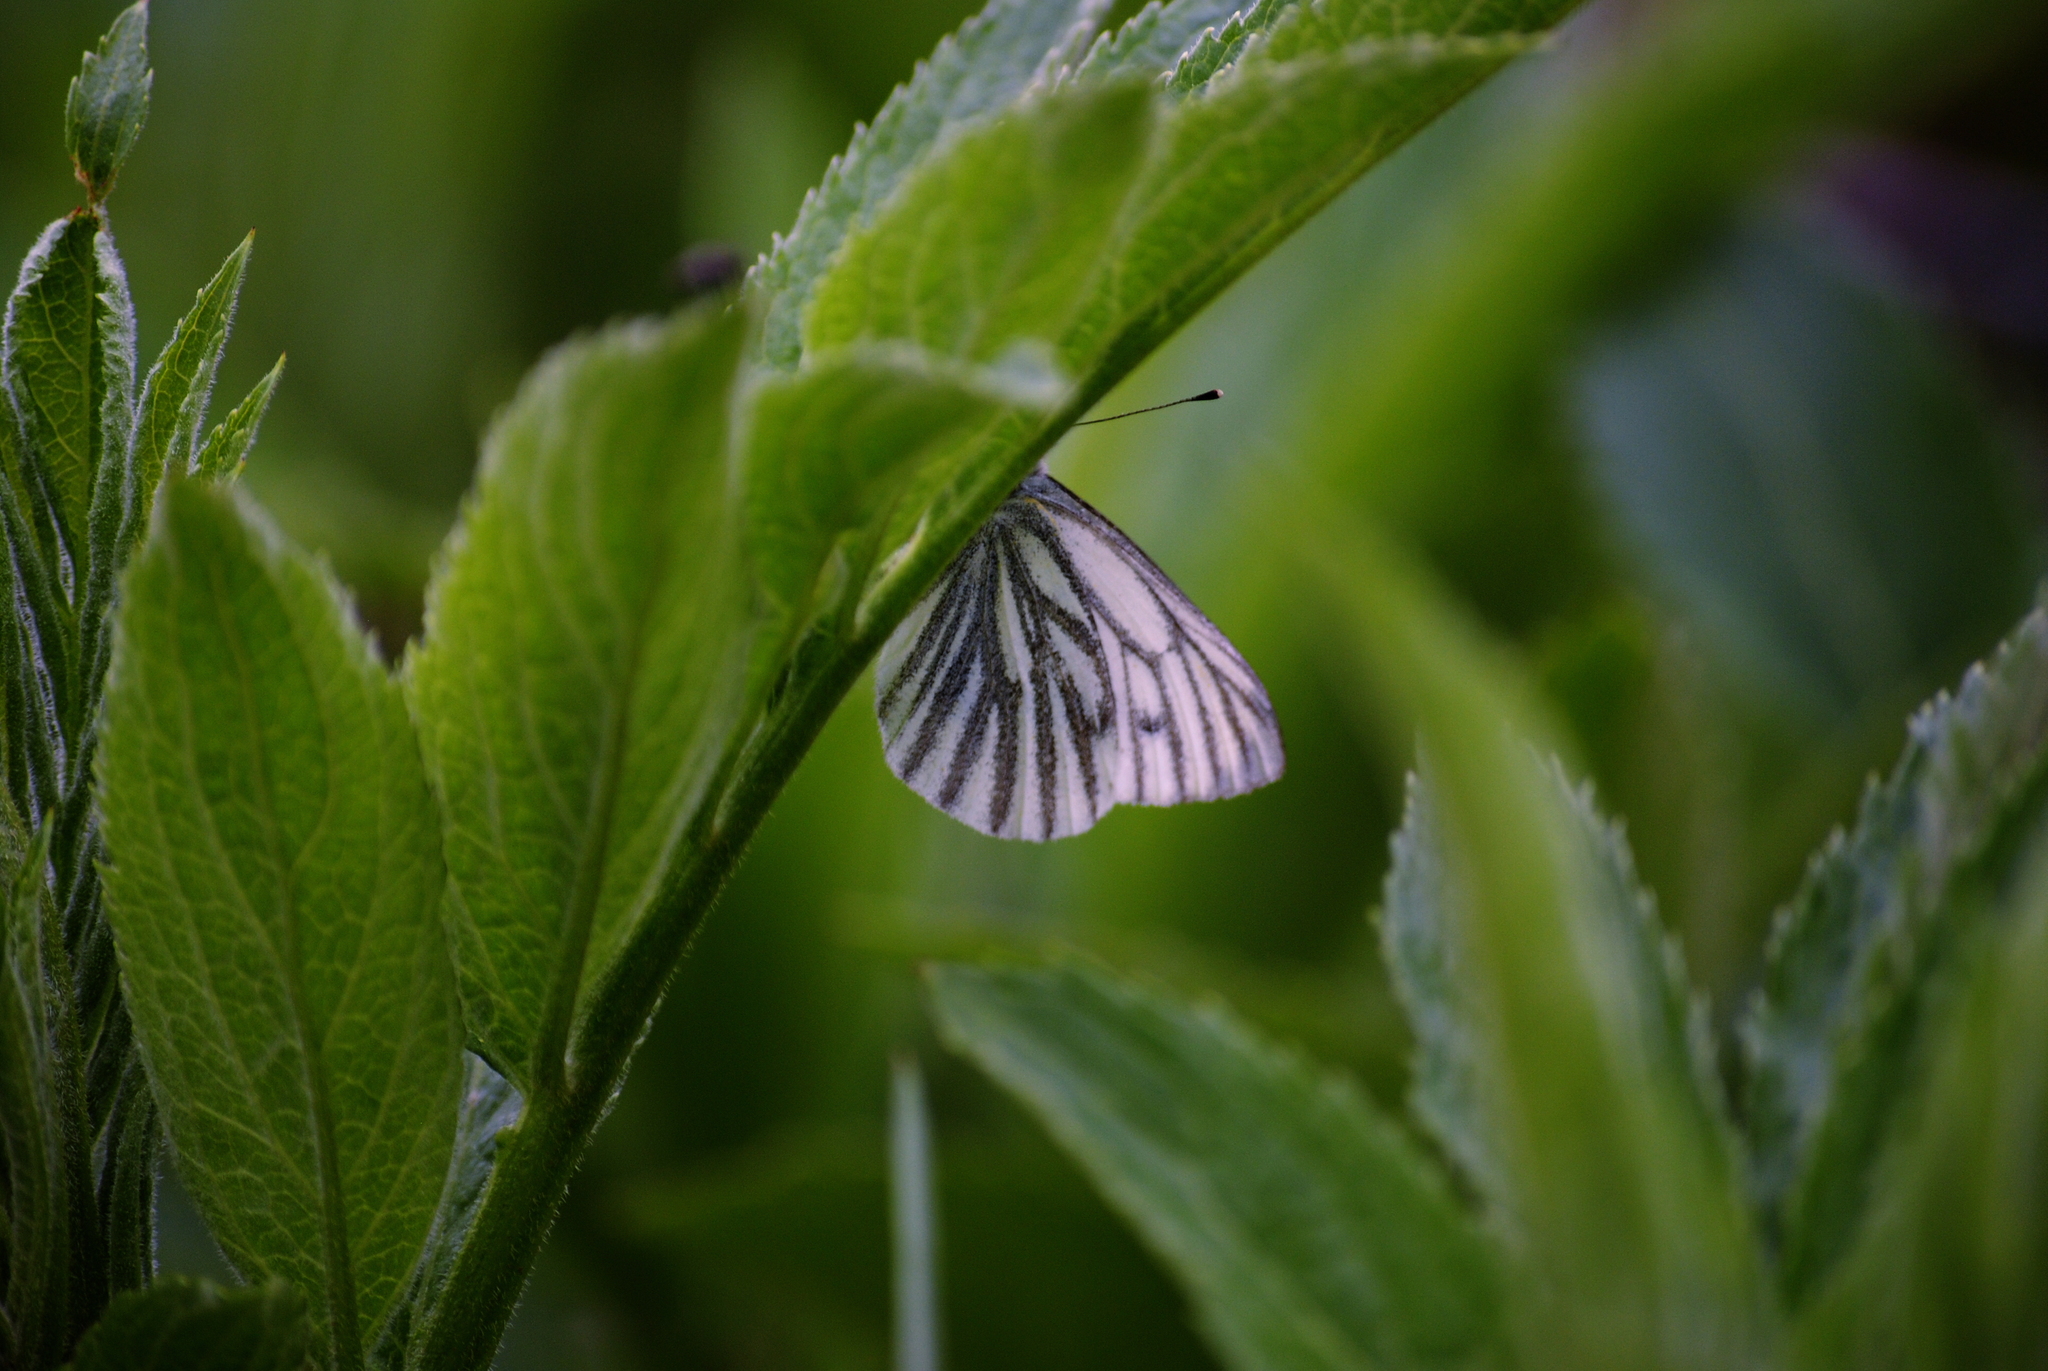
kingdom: Animalia
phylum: Arthropoda
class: Insecta
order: Lepidoptera
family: Pieridae
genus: Pieris
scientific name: Pieris napi
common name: Green-veined white
